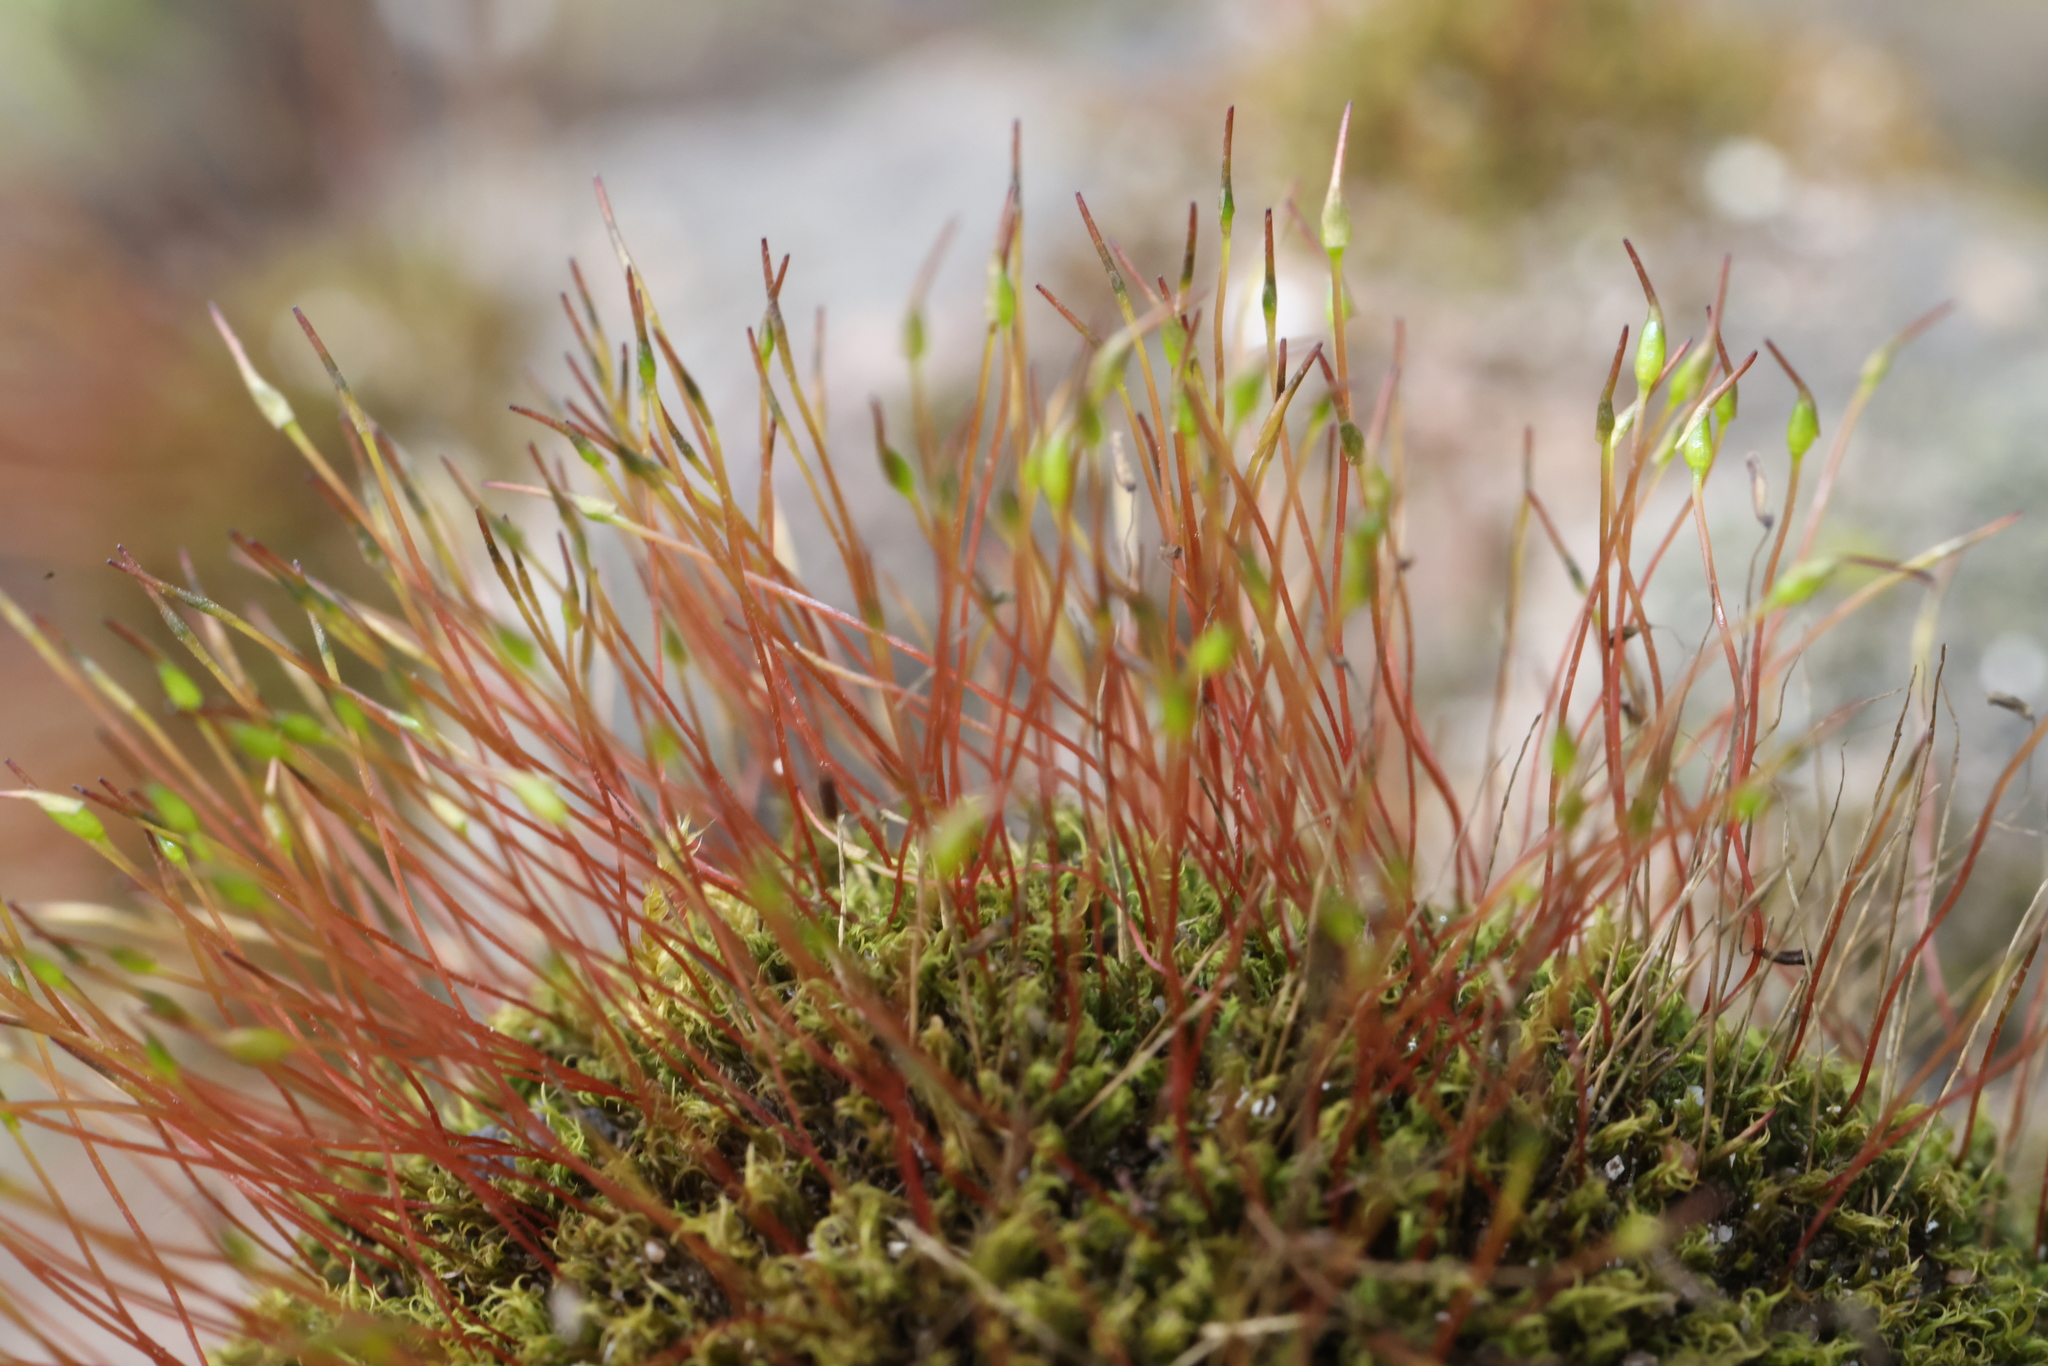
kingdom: Plantae
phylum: Bryophyta
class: Bryopsida
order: Dicranales
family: Ditrichaceae
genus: Ceratodon
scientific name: Ceratodon purpureus
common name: Redshank
